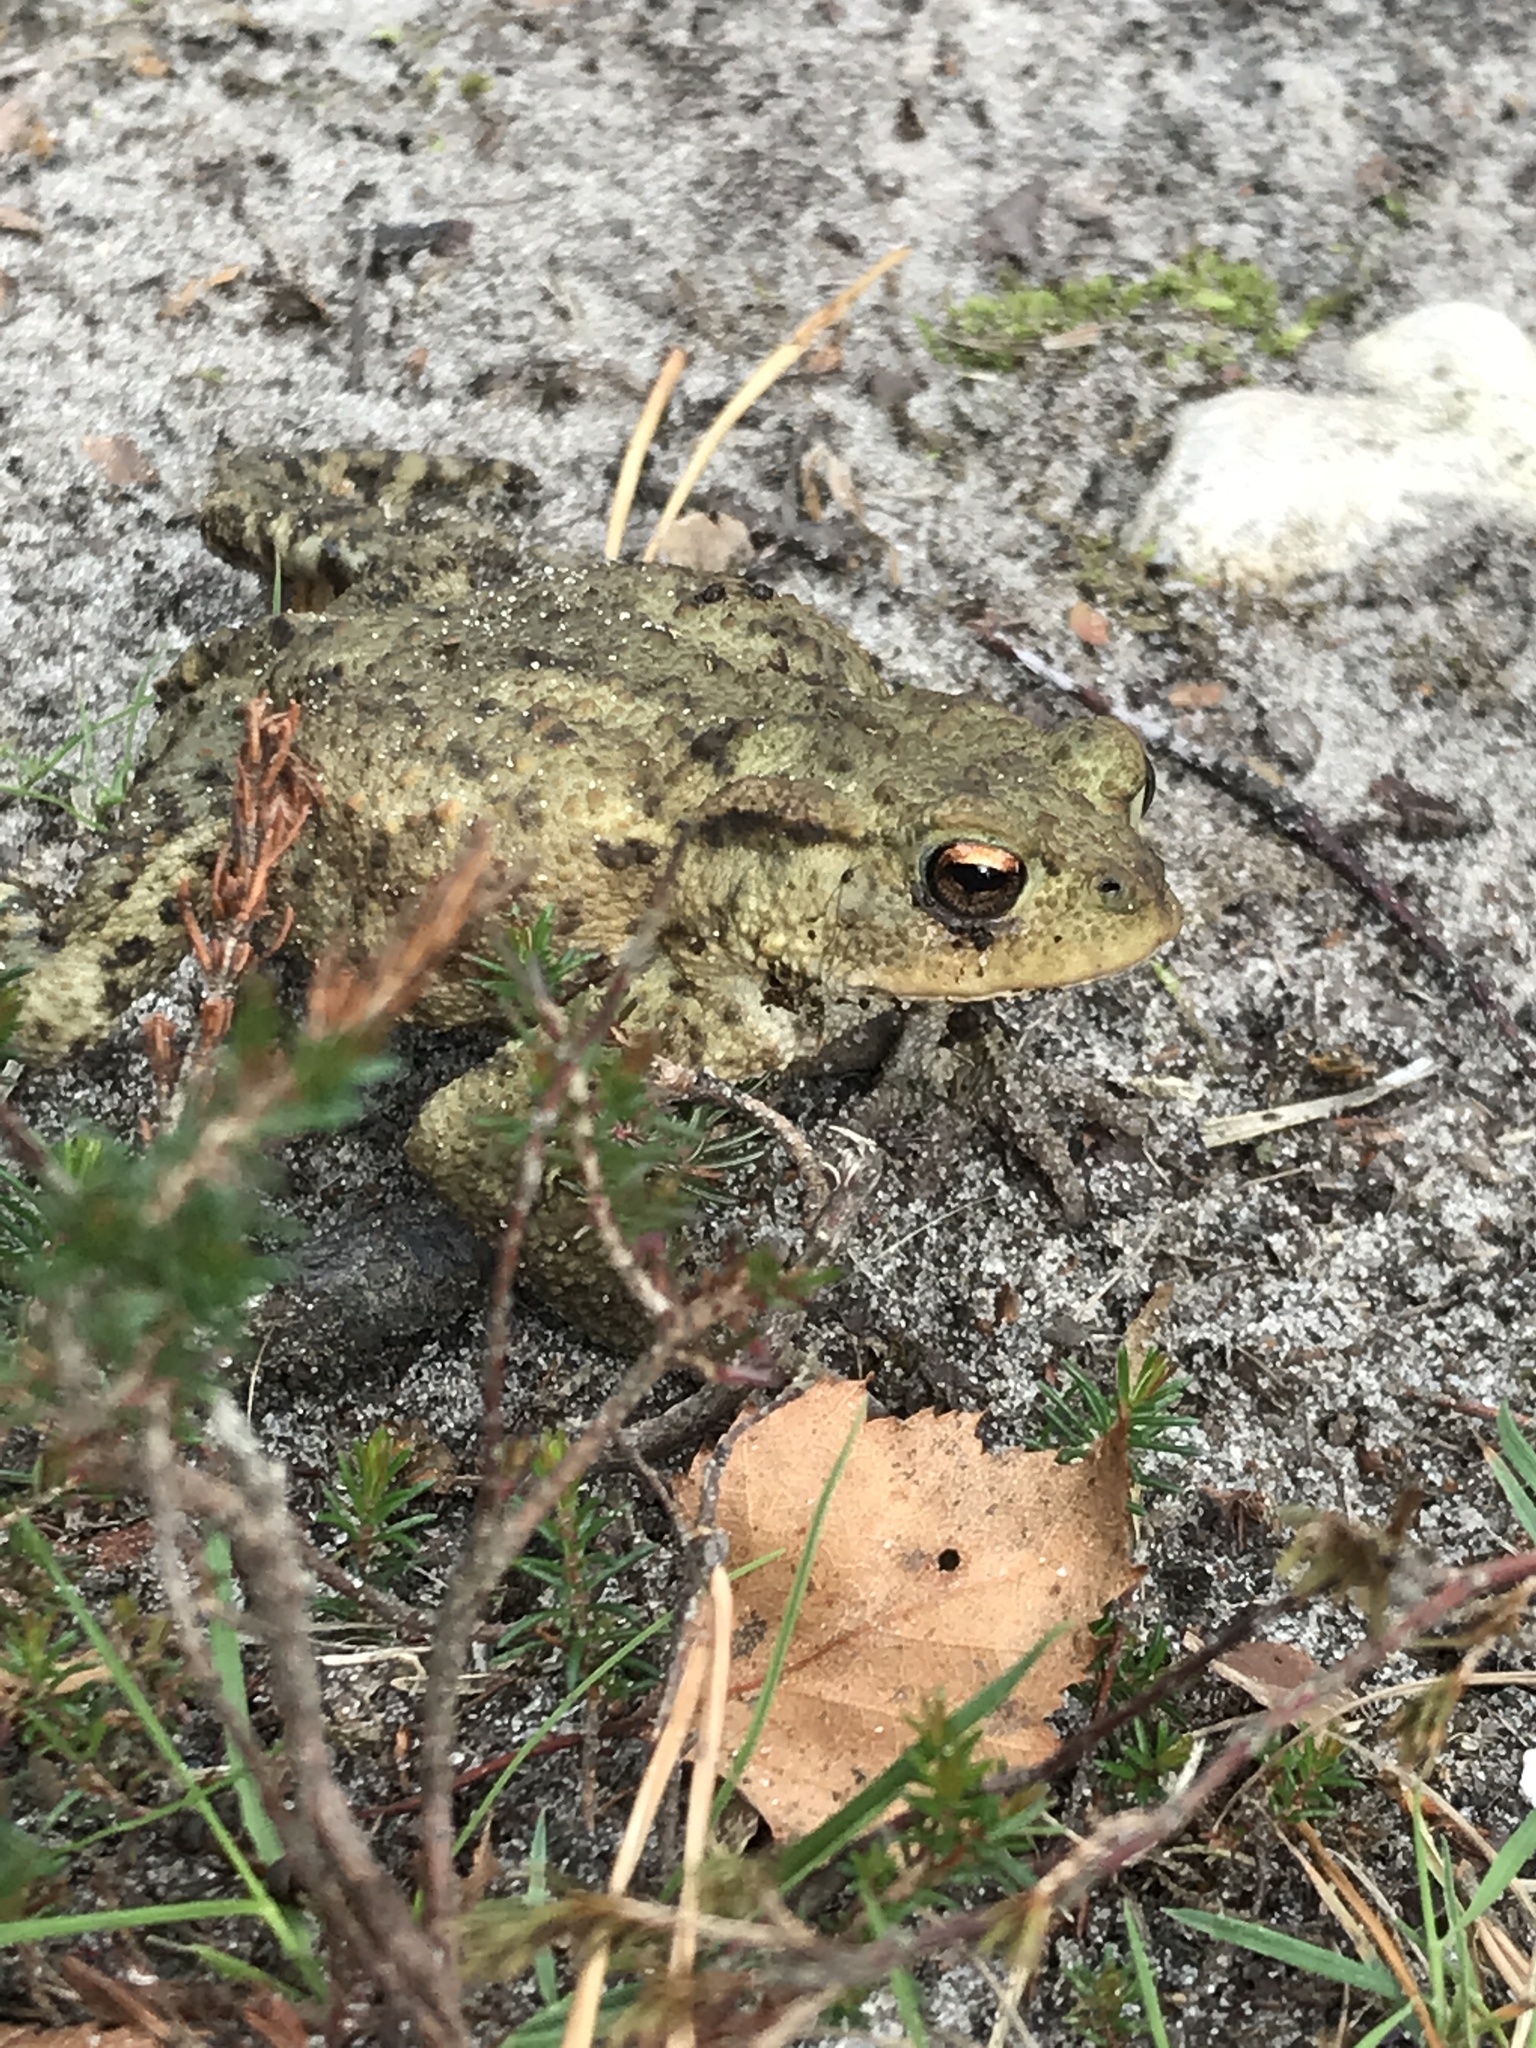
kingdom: Animalia
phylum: Chordata
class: Amphibia
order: Anura
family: Bufonidae
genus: Bufo
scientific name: Bufo bufo
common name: Common toad
